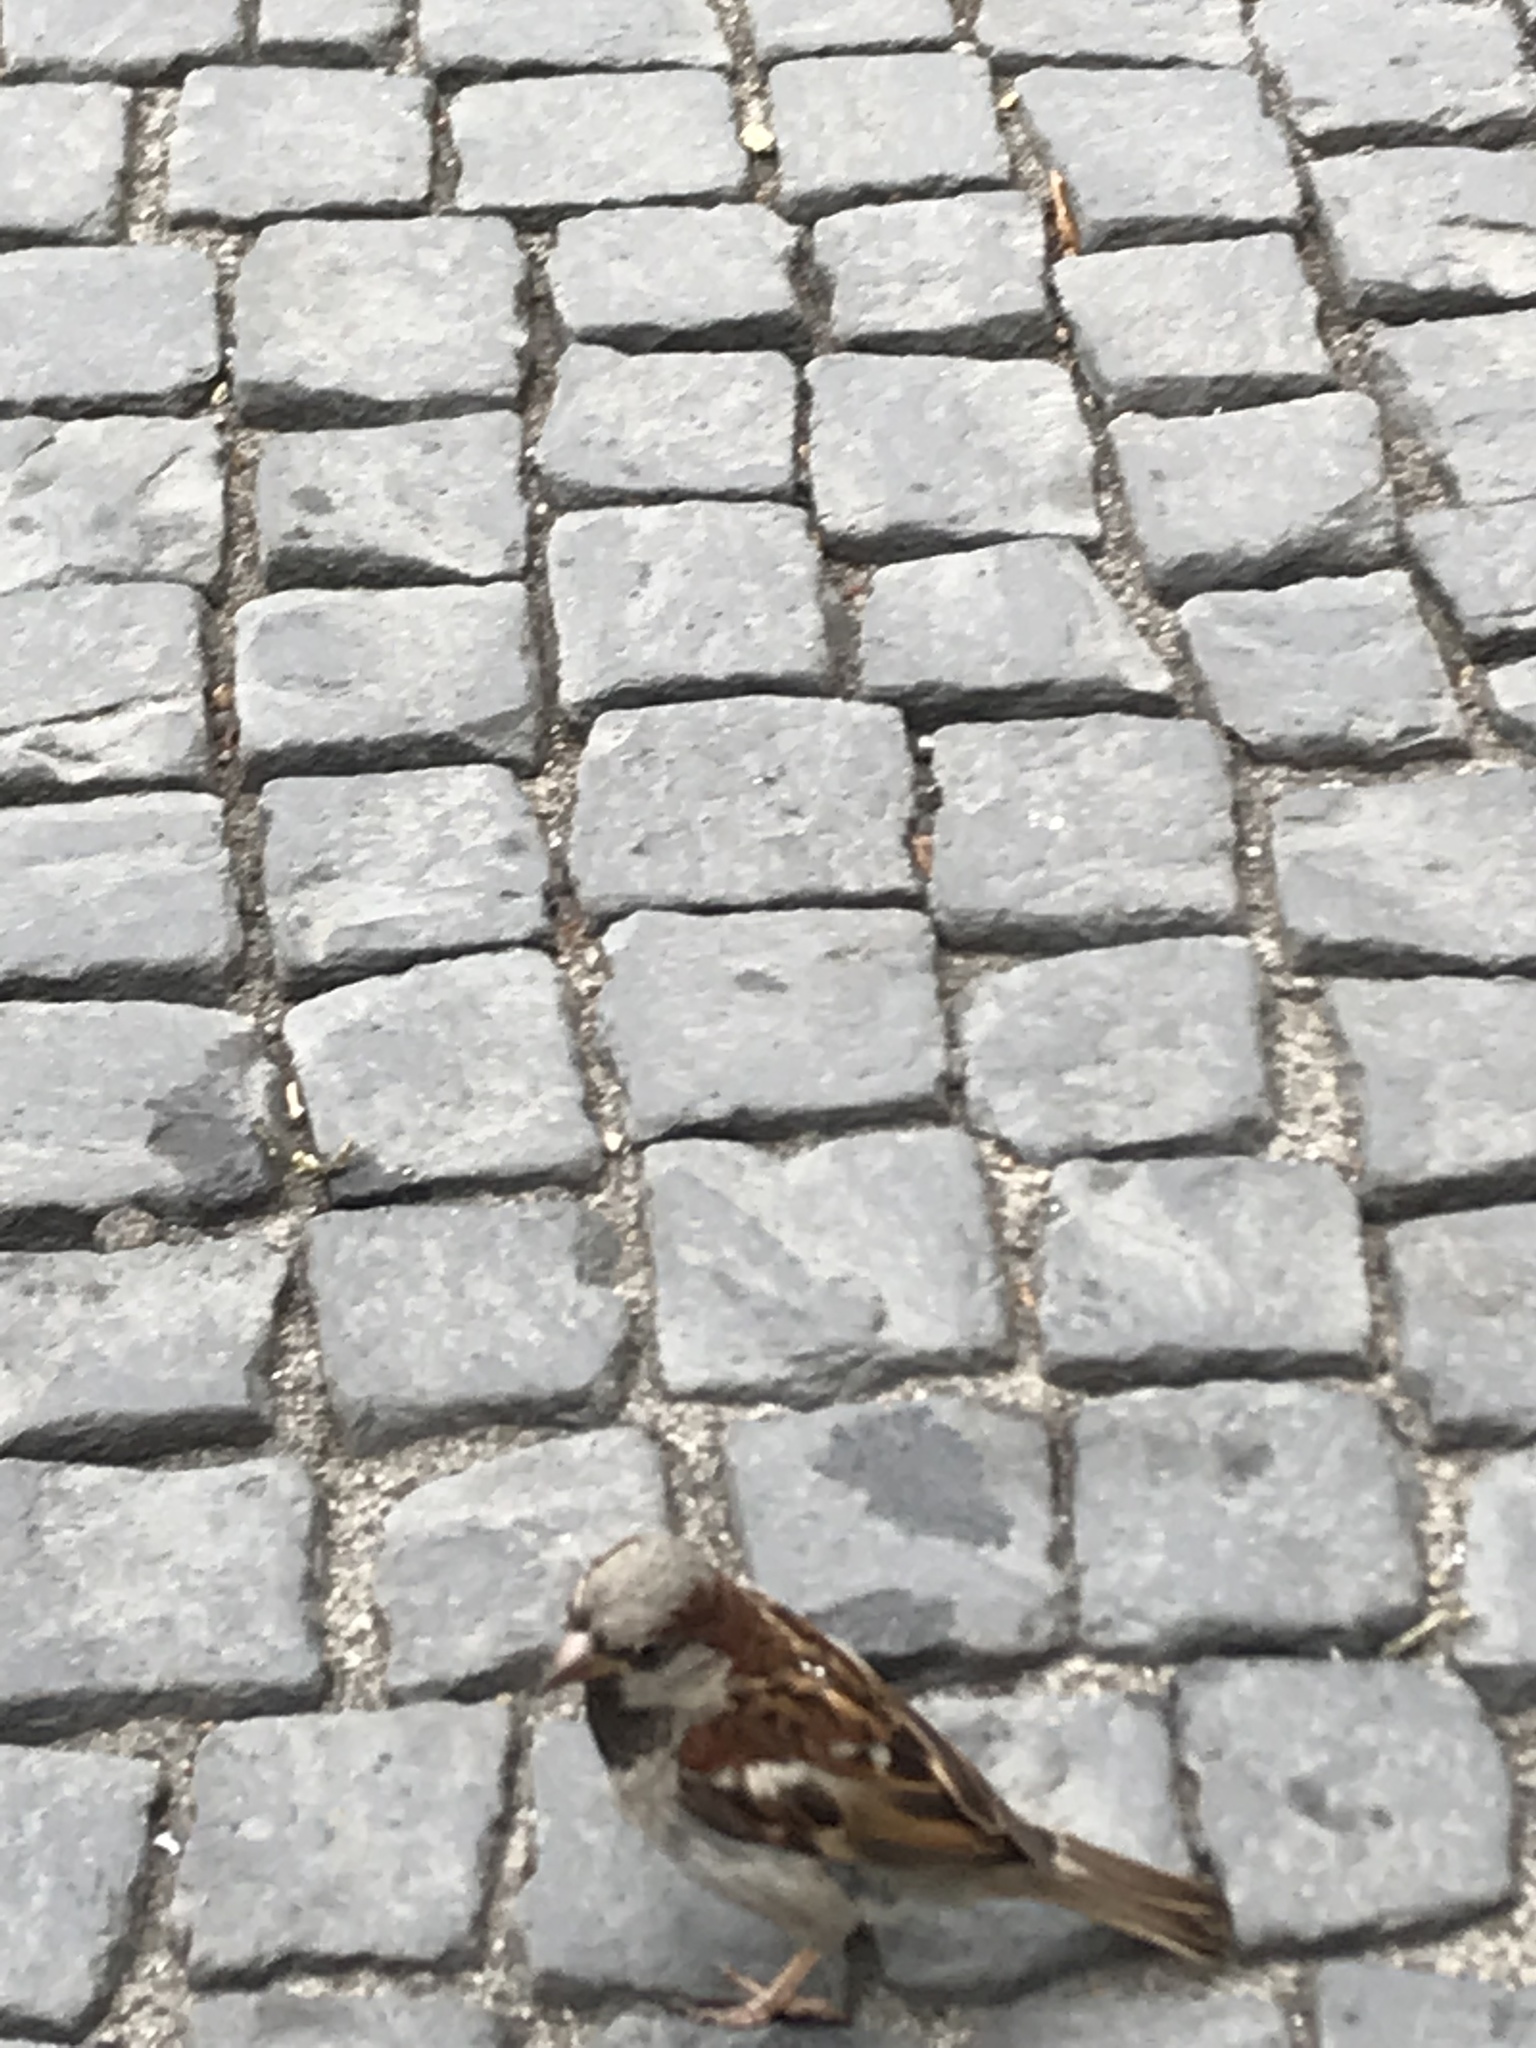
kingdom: Animalia
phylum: Chordata
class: Aves
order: Passeriformes
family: Passeridae
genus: Passer
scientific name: Passer domesticus
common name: House sparrow
